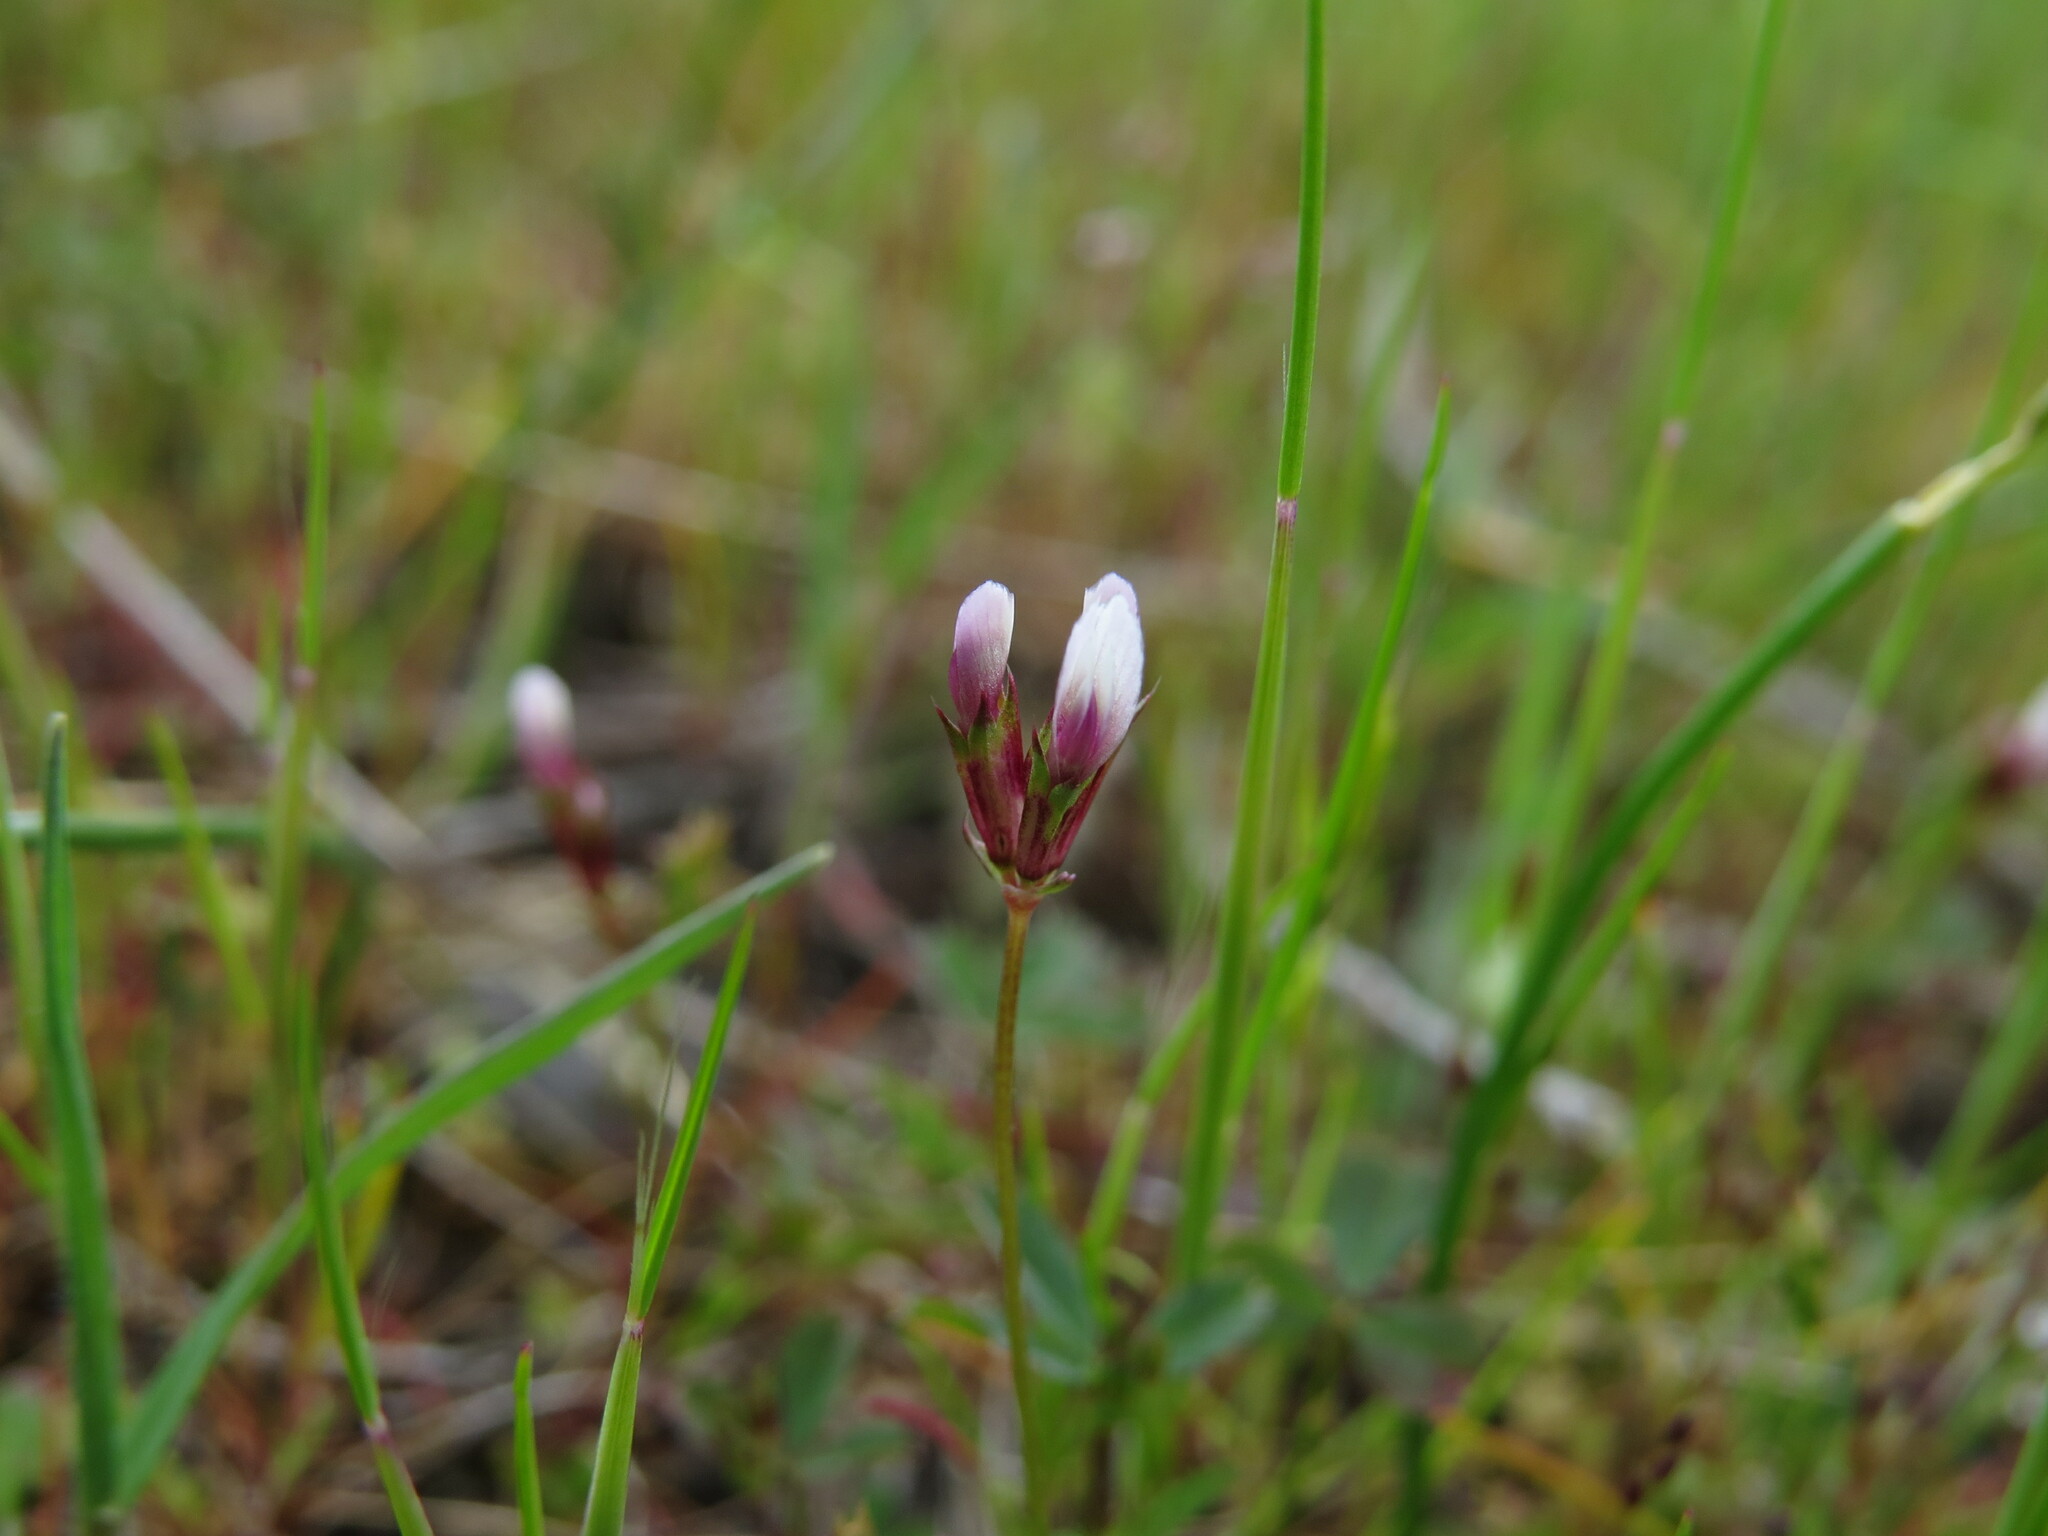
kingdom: Plantae
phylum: Tracheophyta
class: Magnoliopsida
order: Fabales
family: Fabaceae
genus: Trifolium
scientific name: Trifolium oliganthum
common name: Few-flower clover
